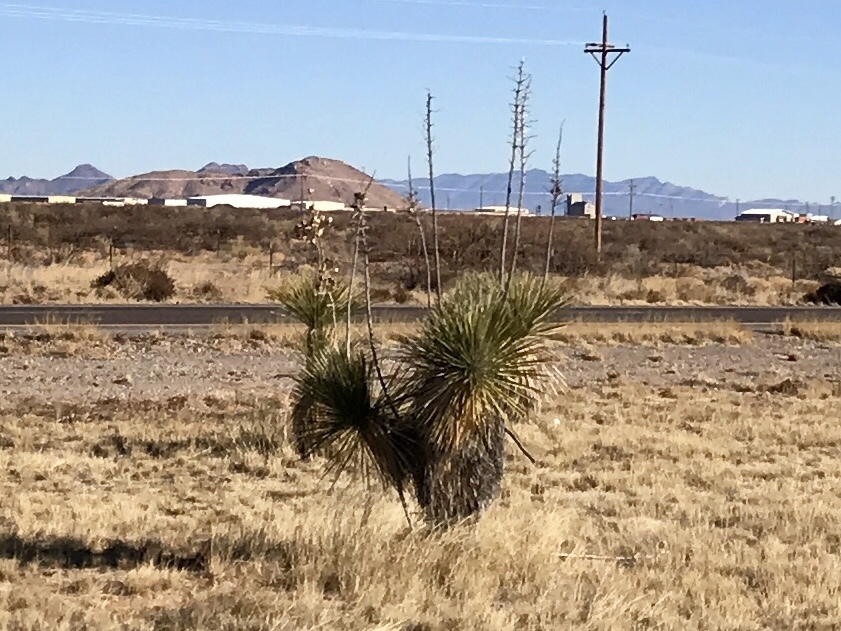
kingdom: Plantae
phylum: Tracheophyta
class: Liliopsida
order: Asparagales
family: Asparagaceae
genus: Yucca
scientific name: Yucca elata
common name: Palmella
